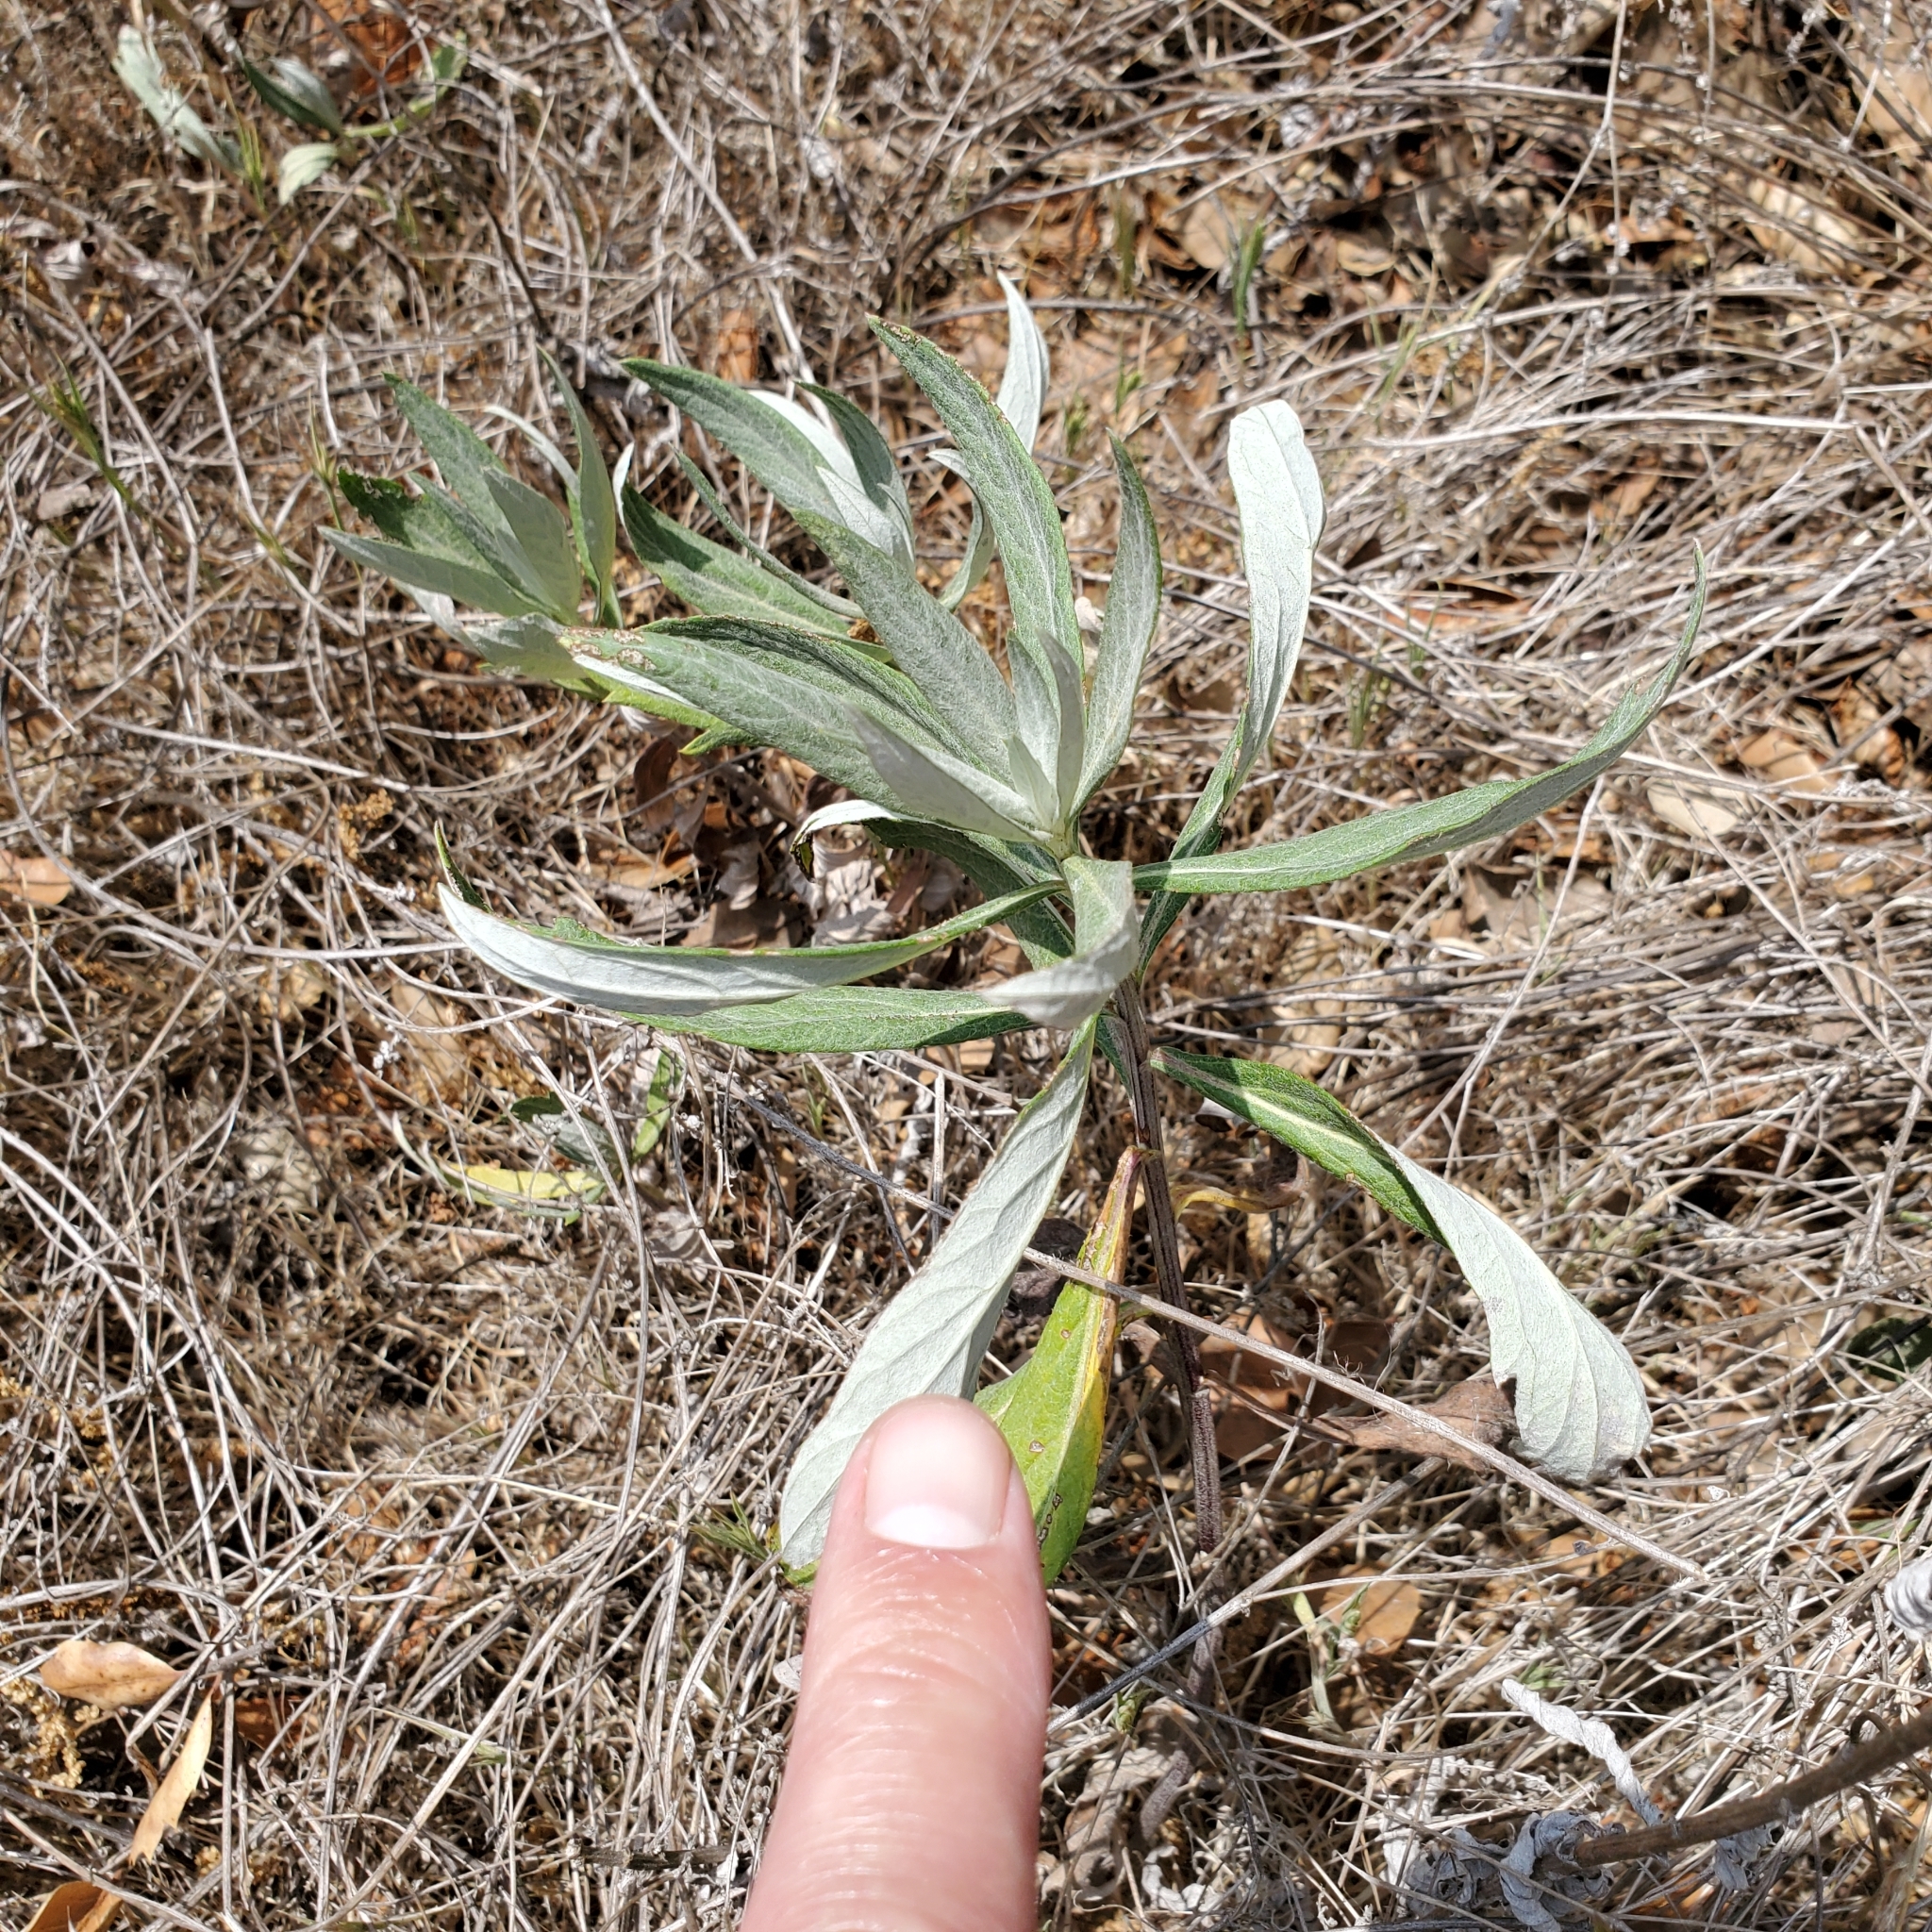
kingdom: Plantae
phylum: Tracheophyta
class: Magnoliopsida
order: Asterales
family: Asteraceae
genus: Artemisia
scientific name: Artemisia douglasiana
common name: Northwest mugwort
